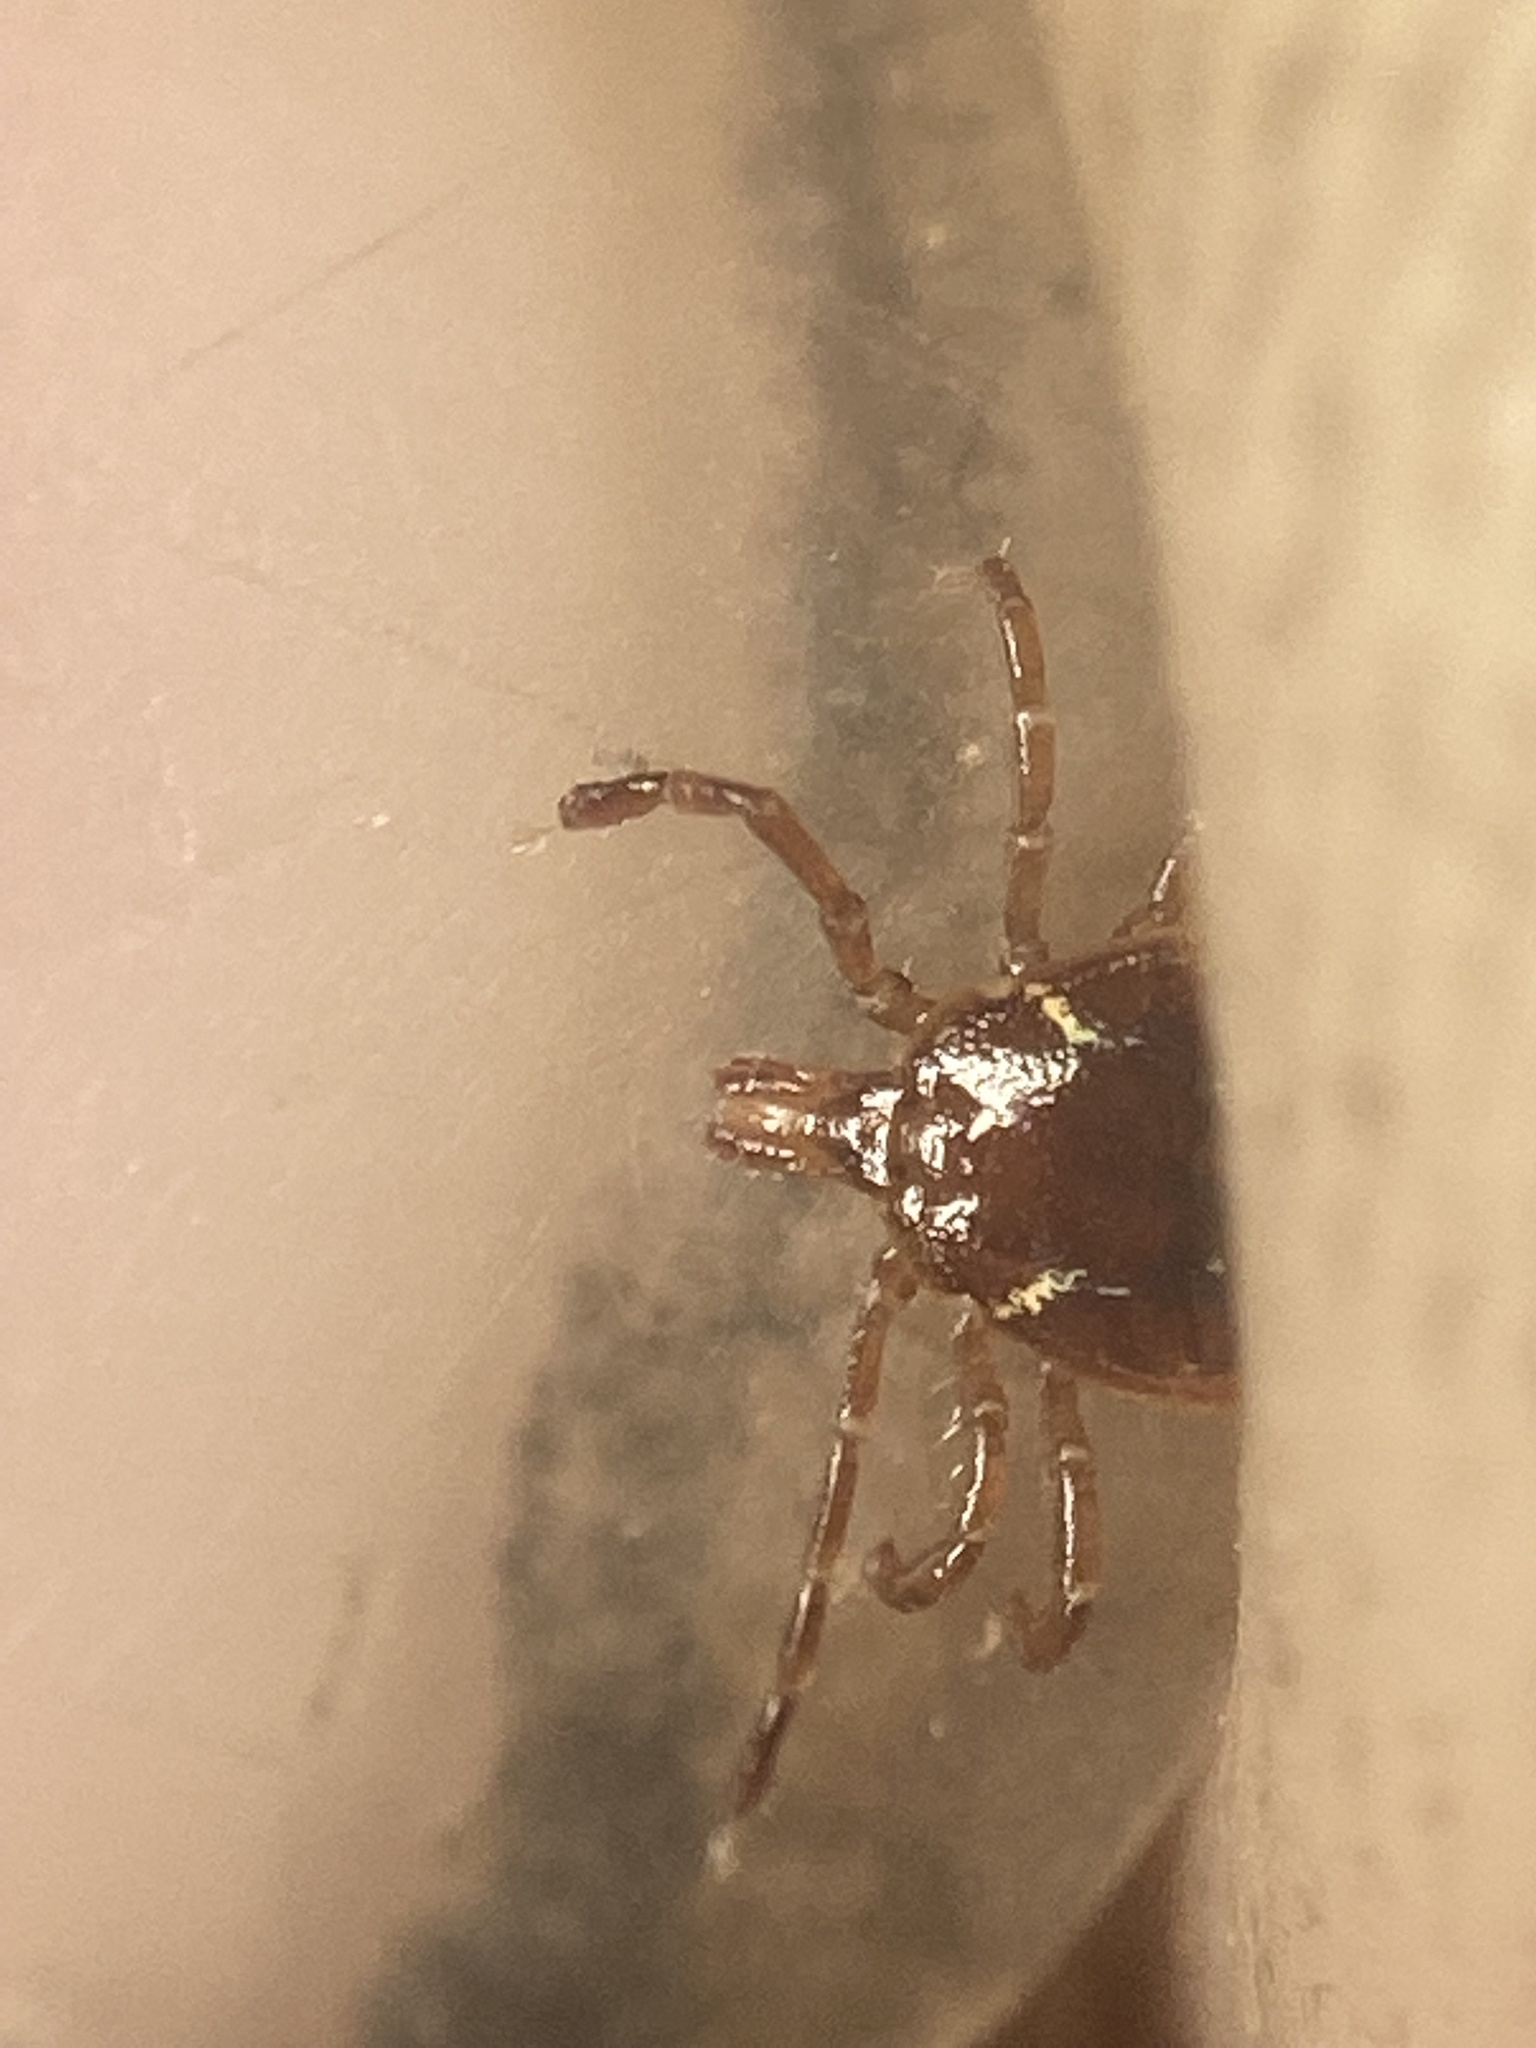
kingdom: Animalia
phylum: Arthropoda
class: Arachnida
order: Ixodida
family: Ixodidae
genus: Amblyomma
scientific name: Amblyomma americanum
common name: Lone star tick
